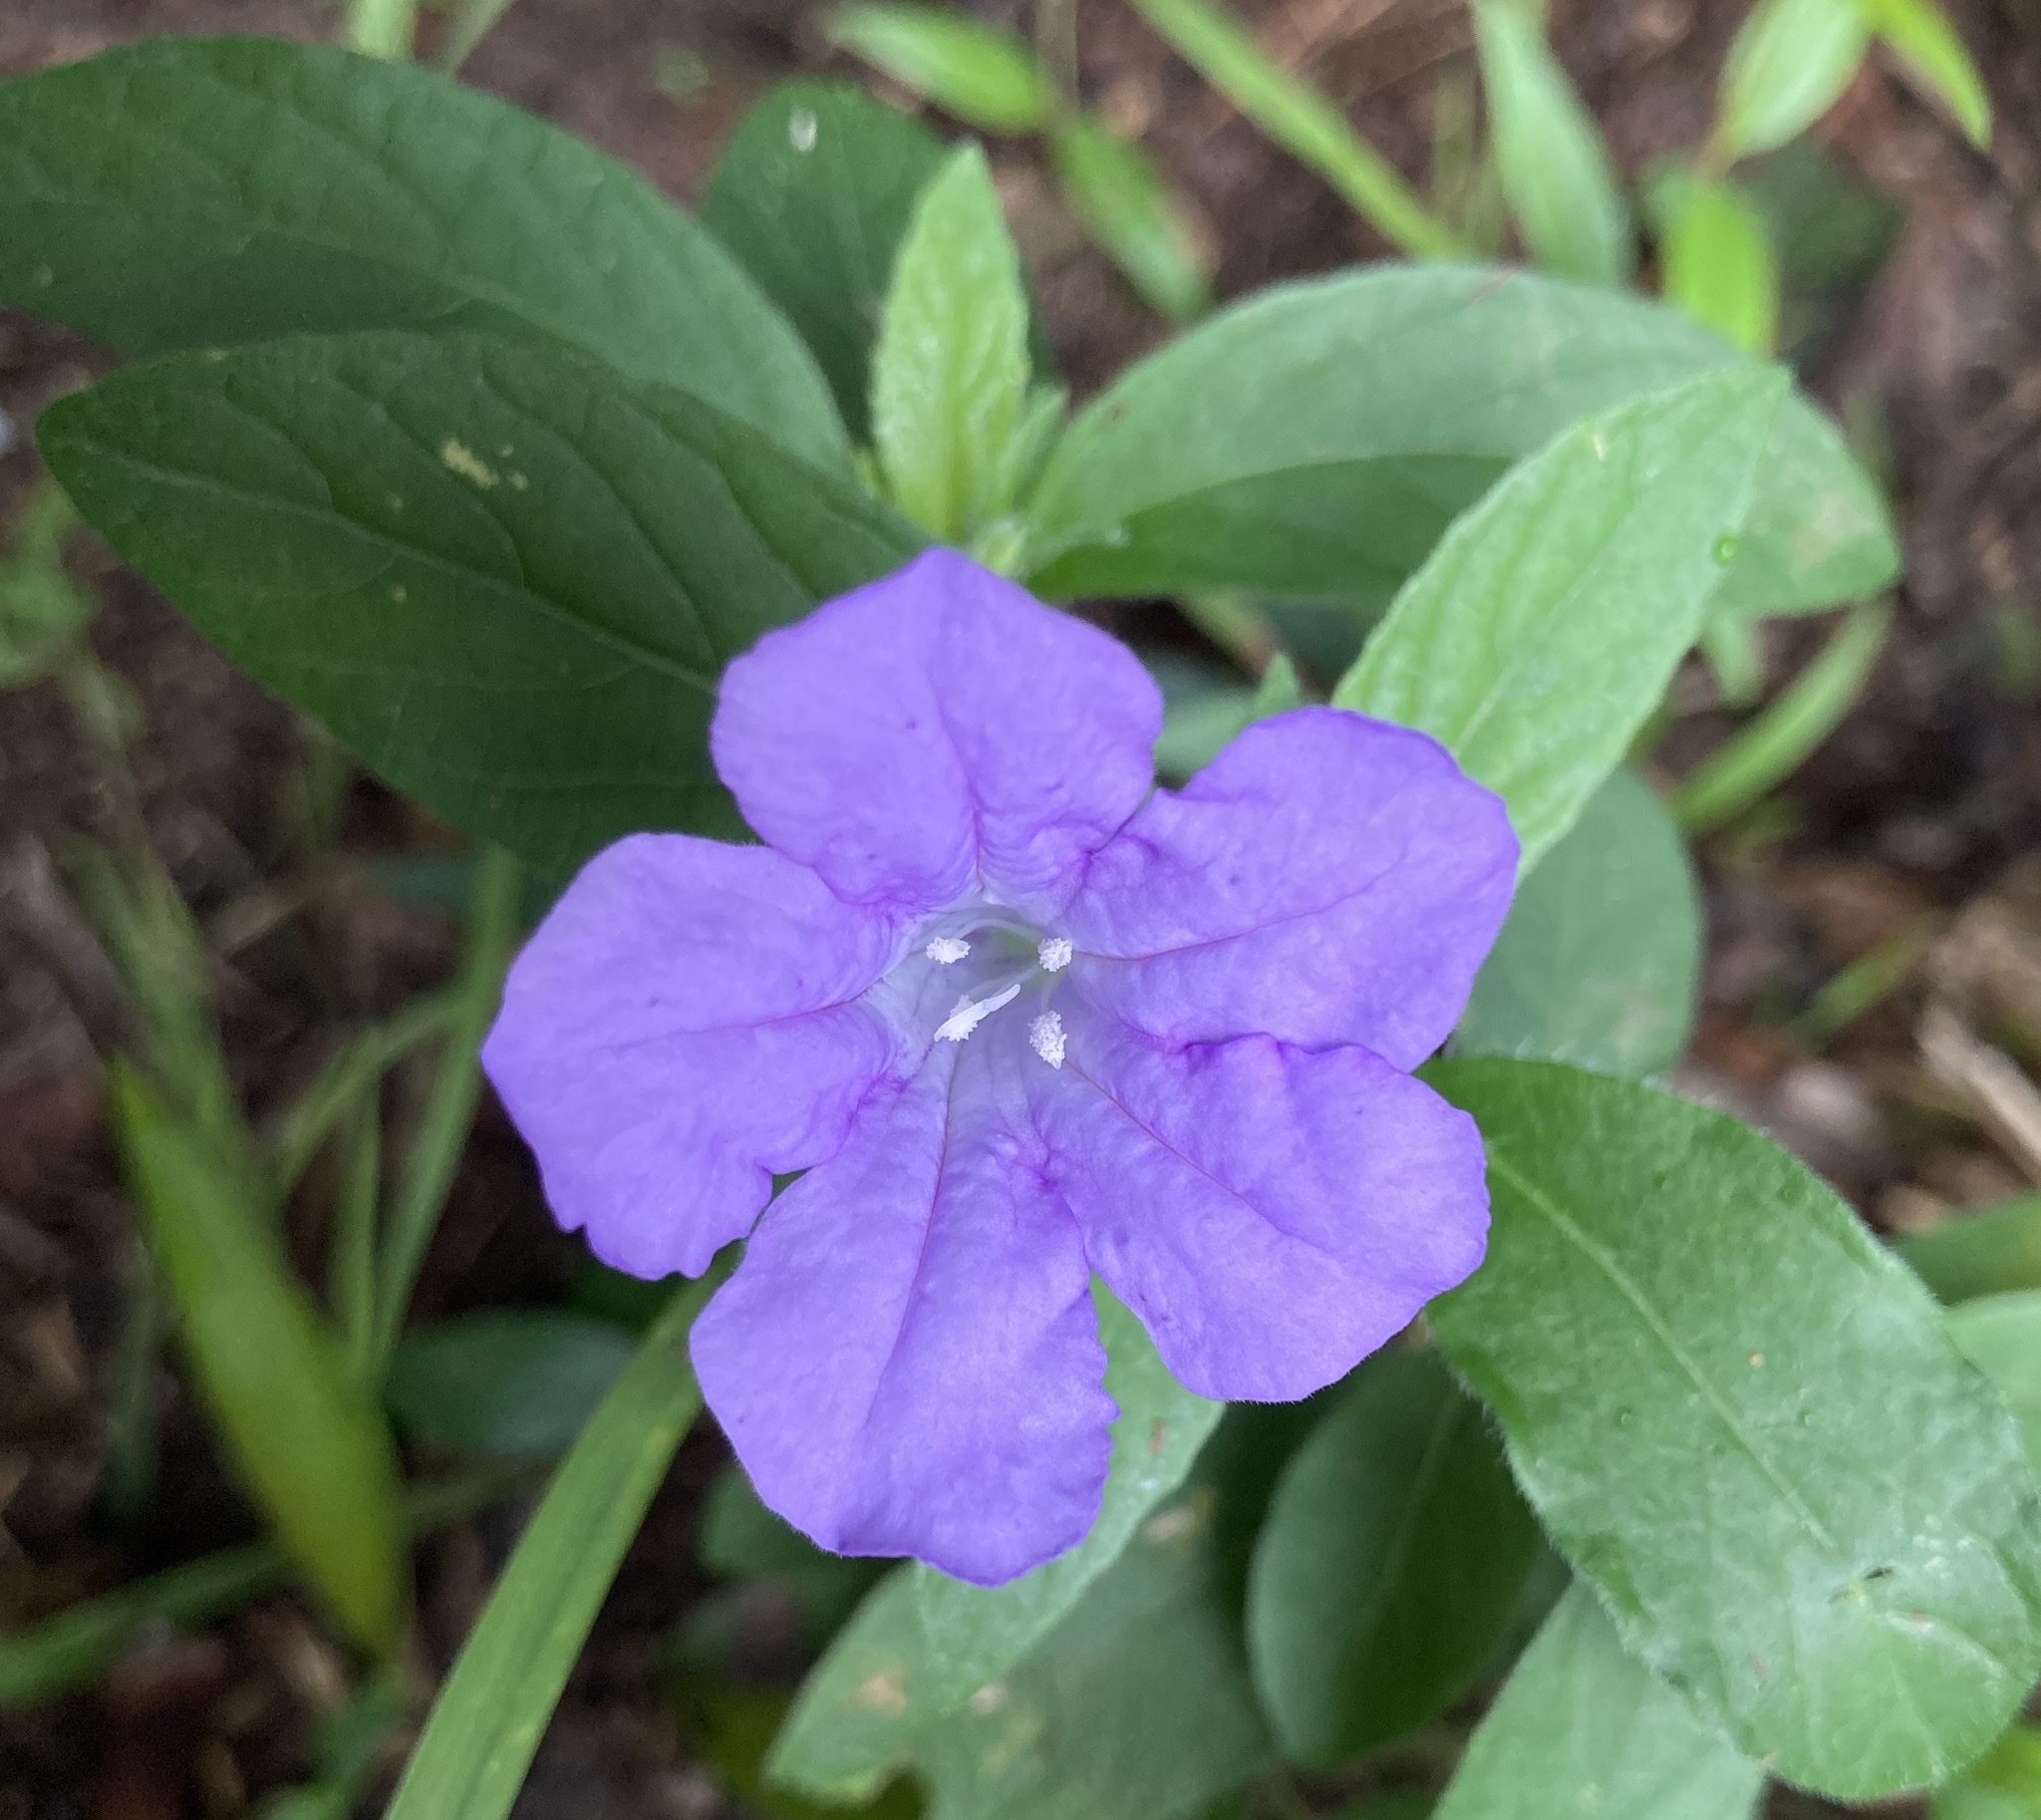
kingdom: Plantae
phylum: Tracheophyta
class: Magnoliopsida
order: Lamiales
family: Acanthaceae
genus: Ruellia
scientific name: Ruellia caroliniensis
